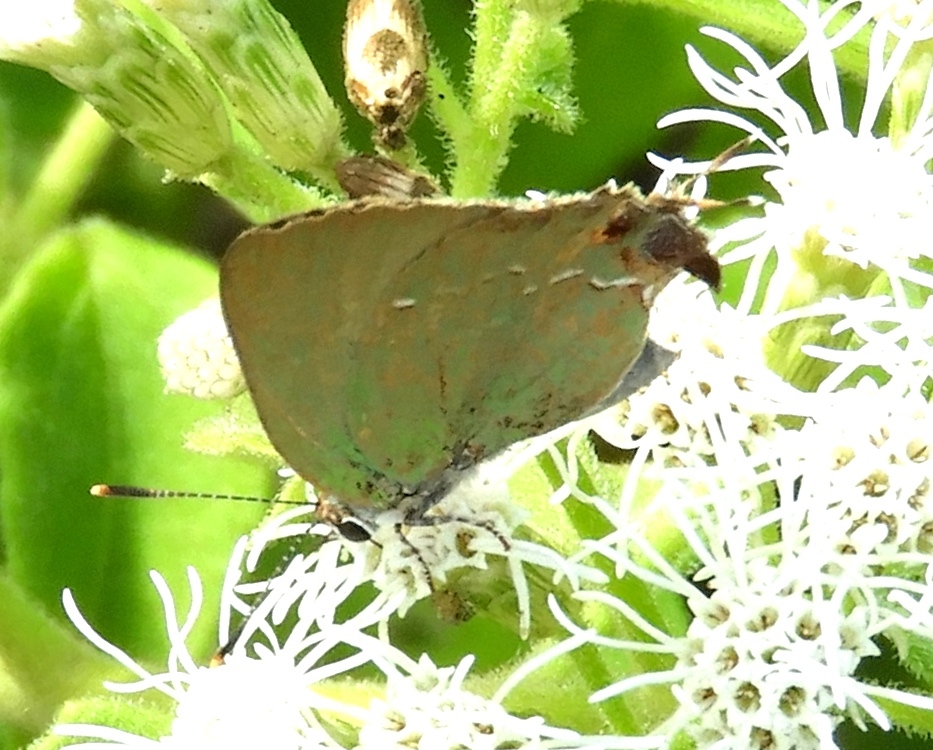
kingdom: Animalia
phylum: Arthropoda
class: Insecta
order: Lepidoptera
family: Lycaenidae
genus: Cyanophrys
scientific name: Cyanophrys miserabilis
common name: Clench's greenstreak
